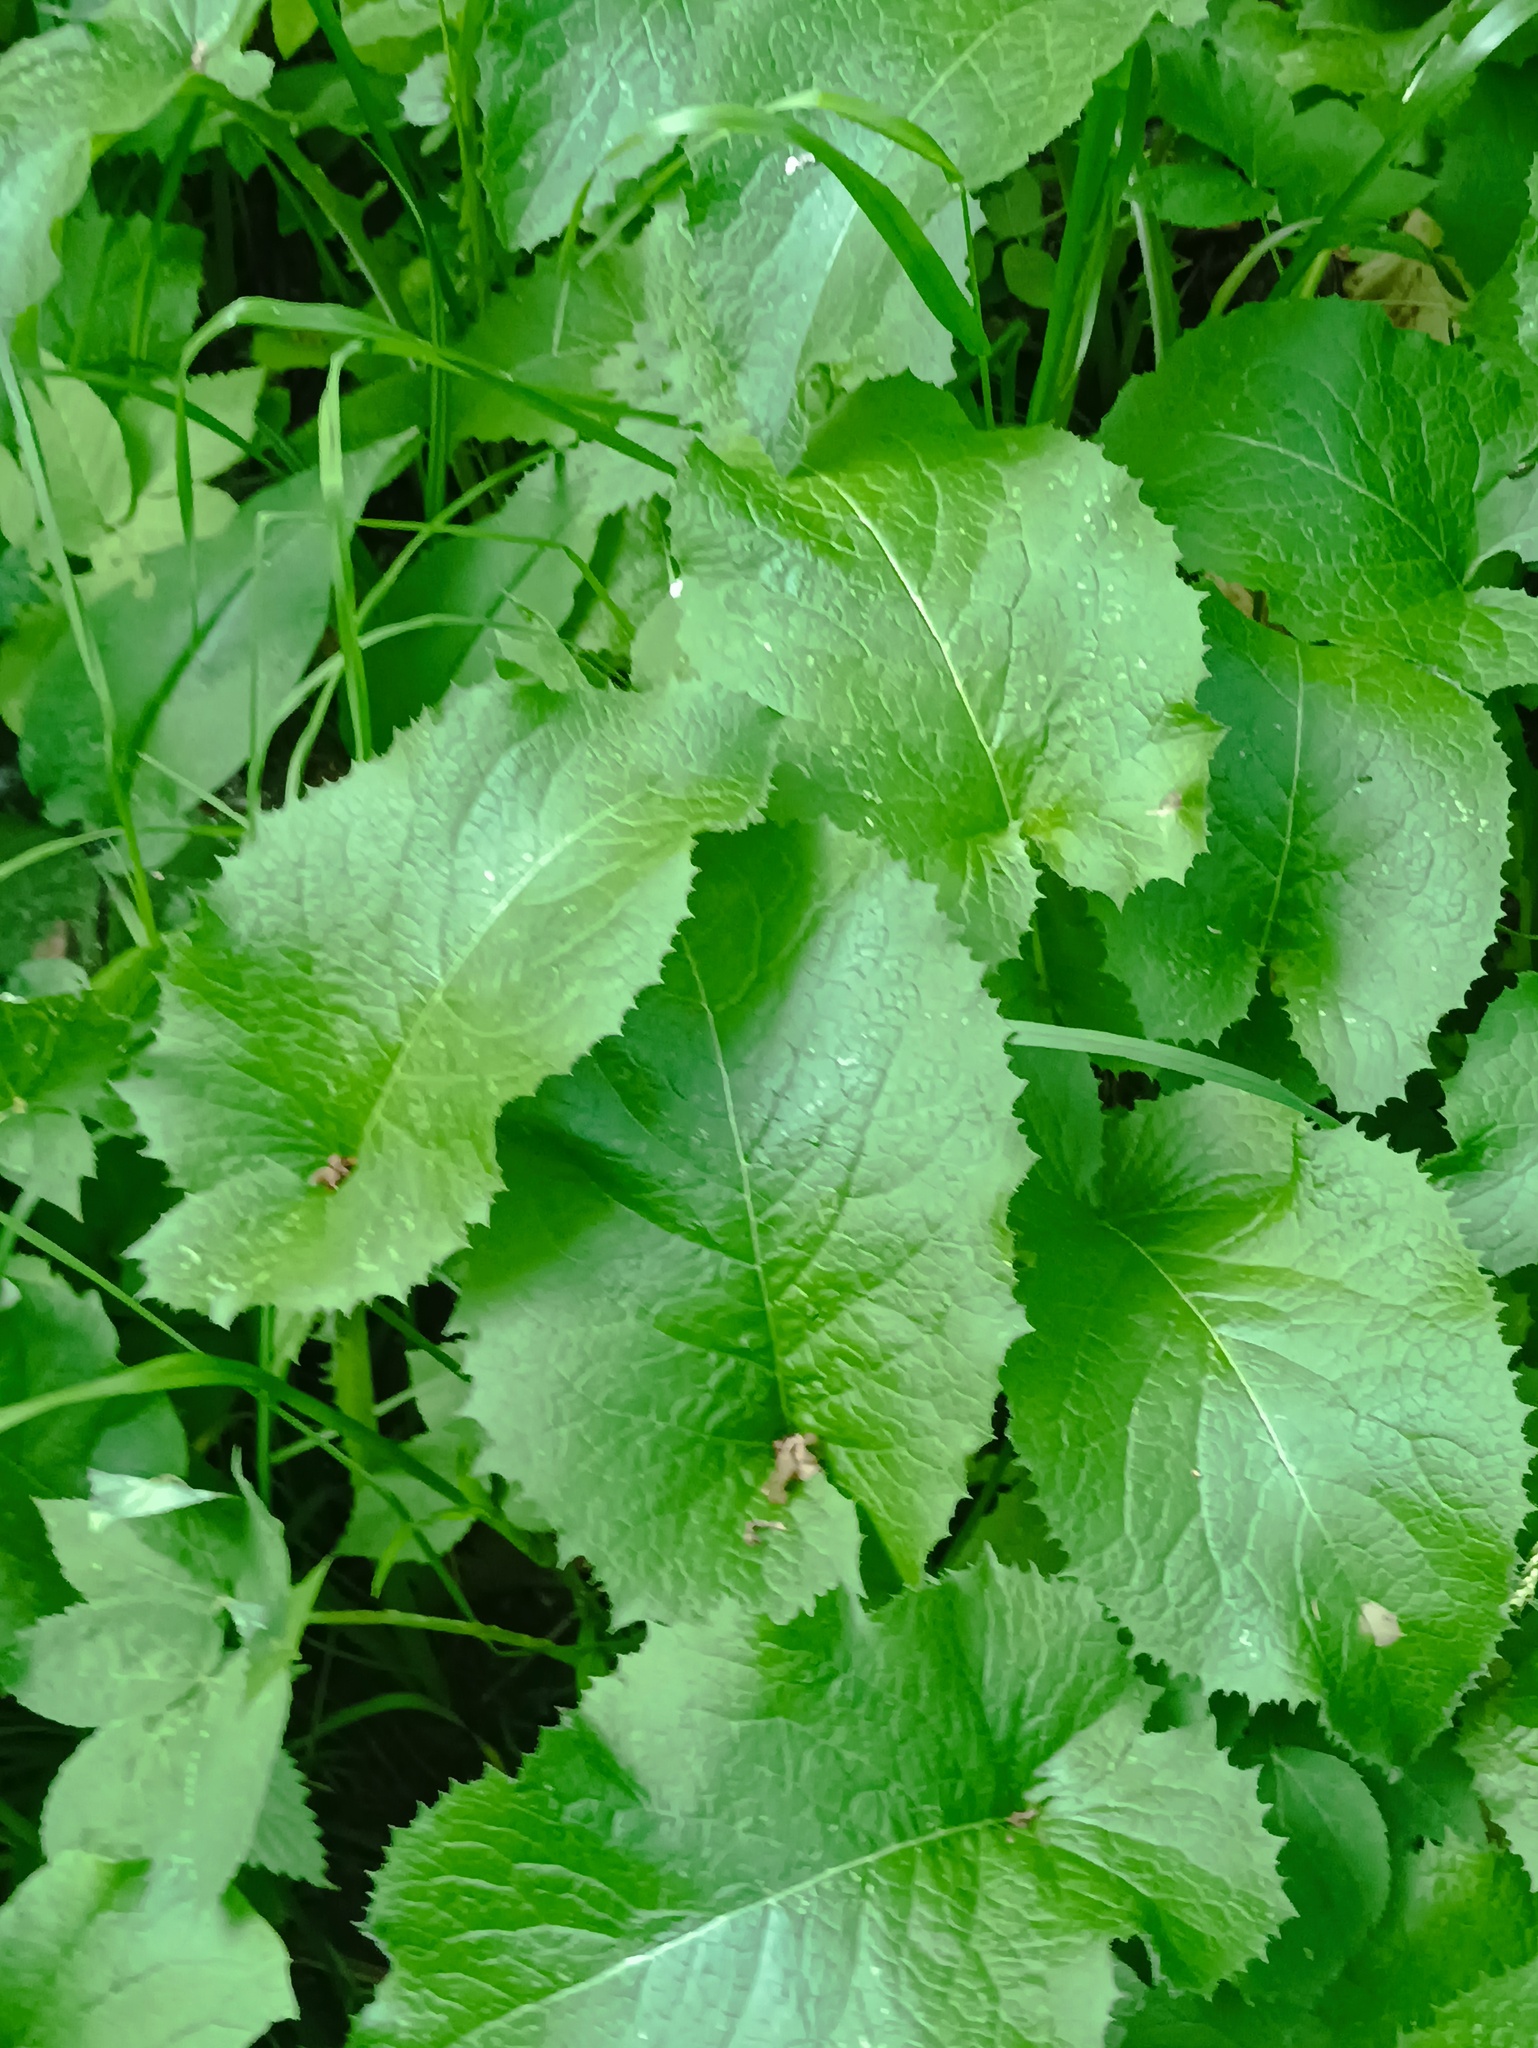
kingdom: Plantae
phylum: Tracheophyta
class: Magnoliopsida
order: Asterales
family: Asteraceae
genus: Lactuca
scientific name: Lactuca macrophylla
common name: Common blue-sow-thistle
